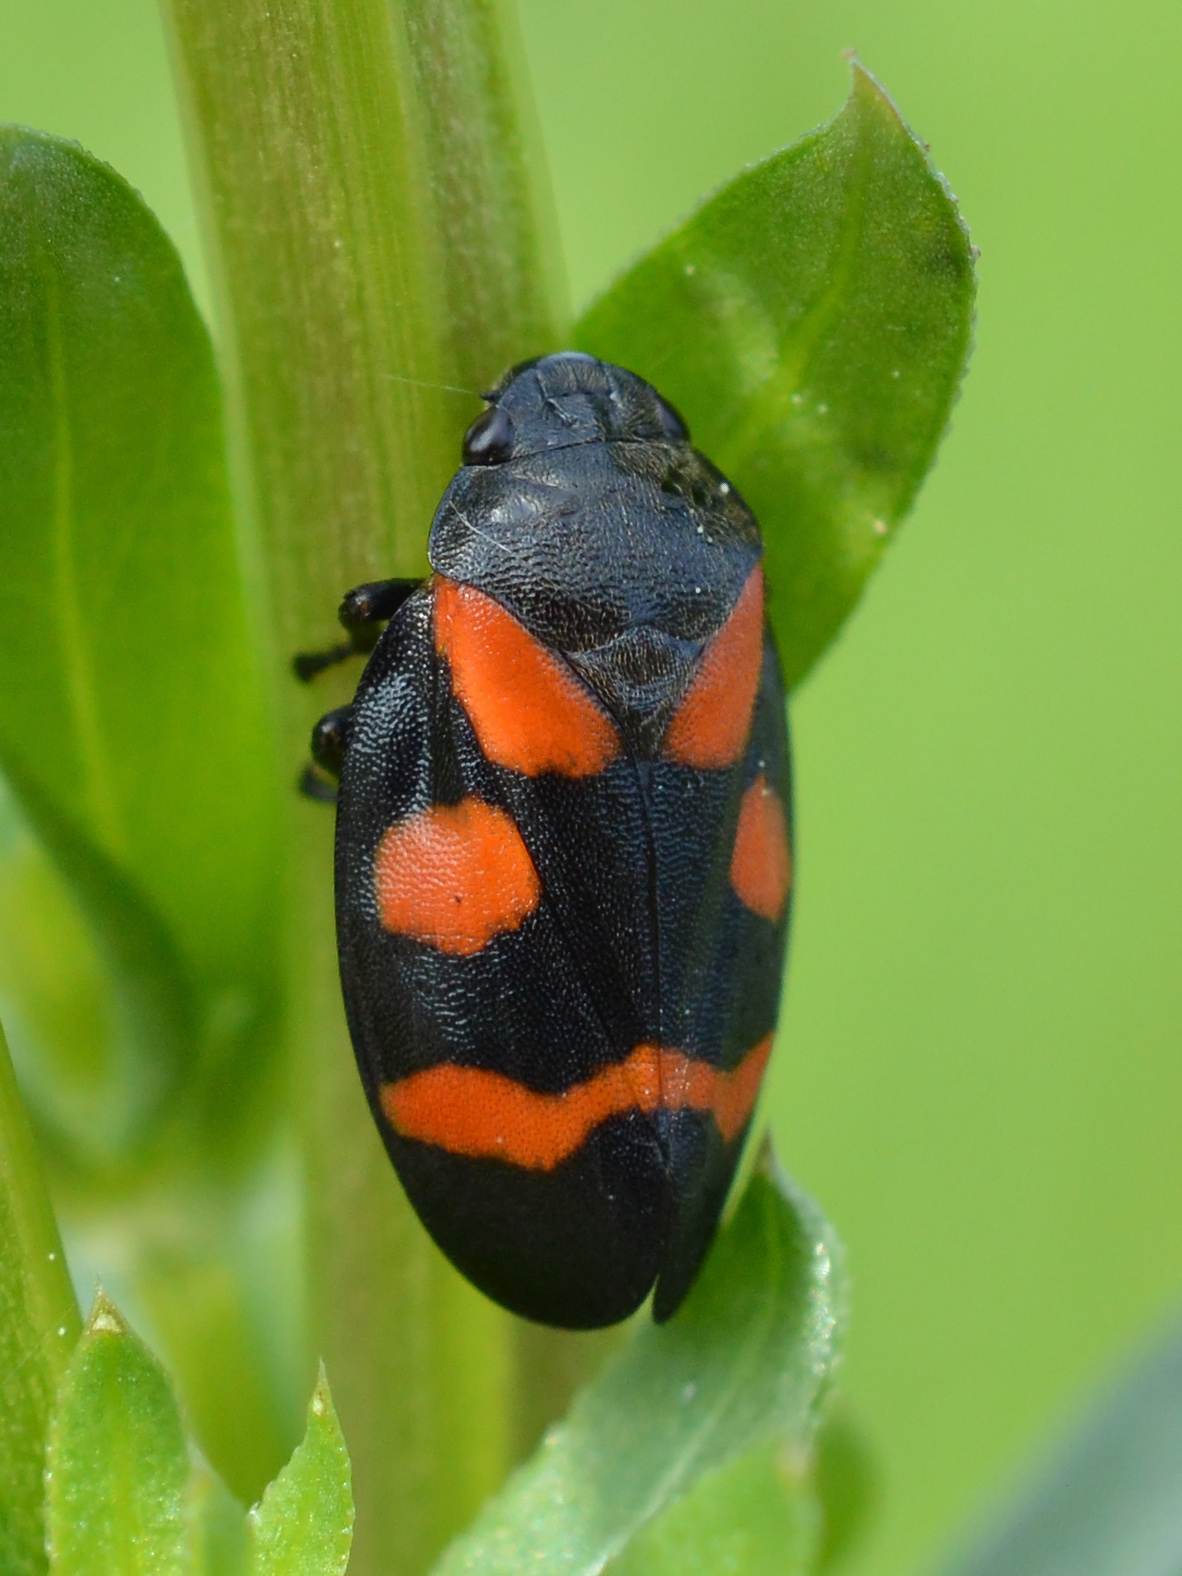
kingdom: Animalia
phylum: Arthropoda
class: Insecta
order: Hemiptera
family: Cercopidae
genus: Cercopis
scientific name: Cercopis sanguinolenta
